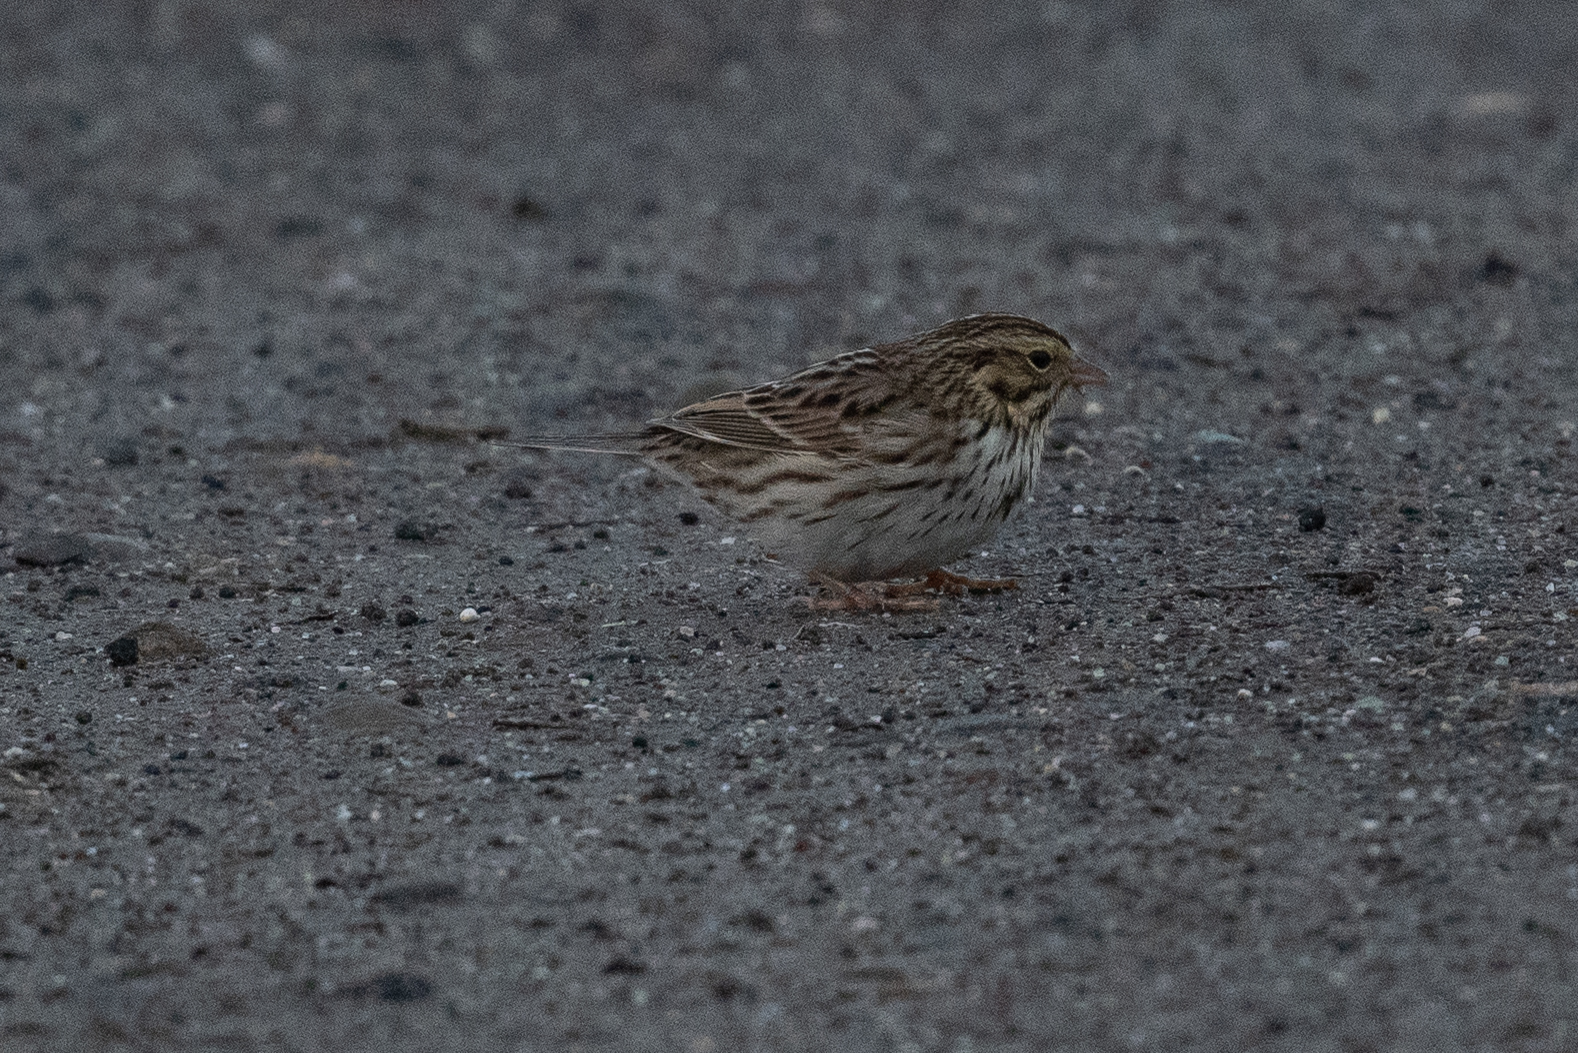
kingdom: Animalia
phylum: Chordata
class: Aves
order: Passeriformes
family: Passerellidae
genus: Passerculus
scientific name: Passerculus sandwichensis
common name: Savannah sparrow
